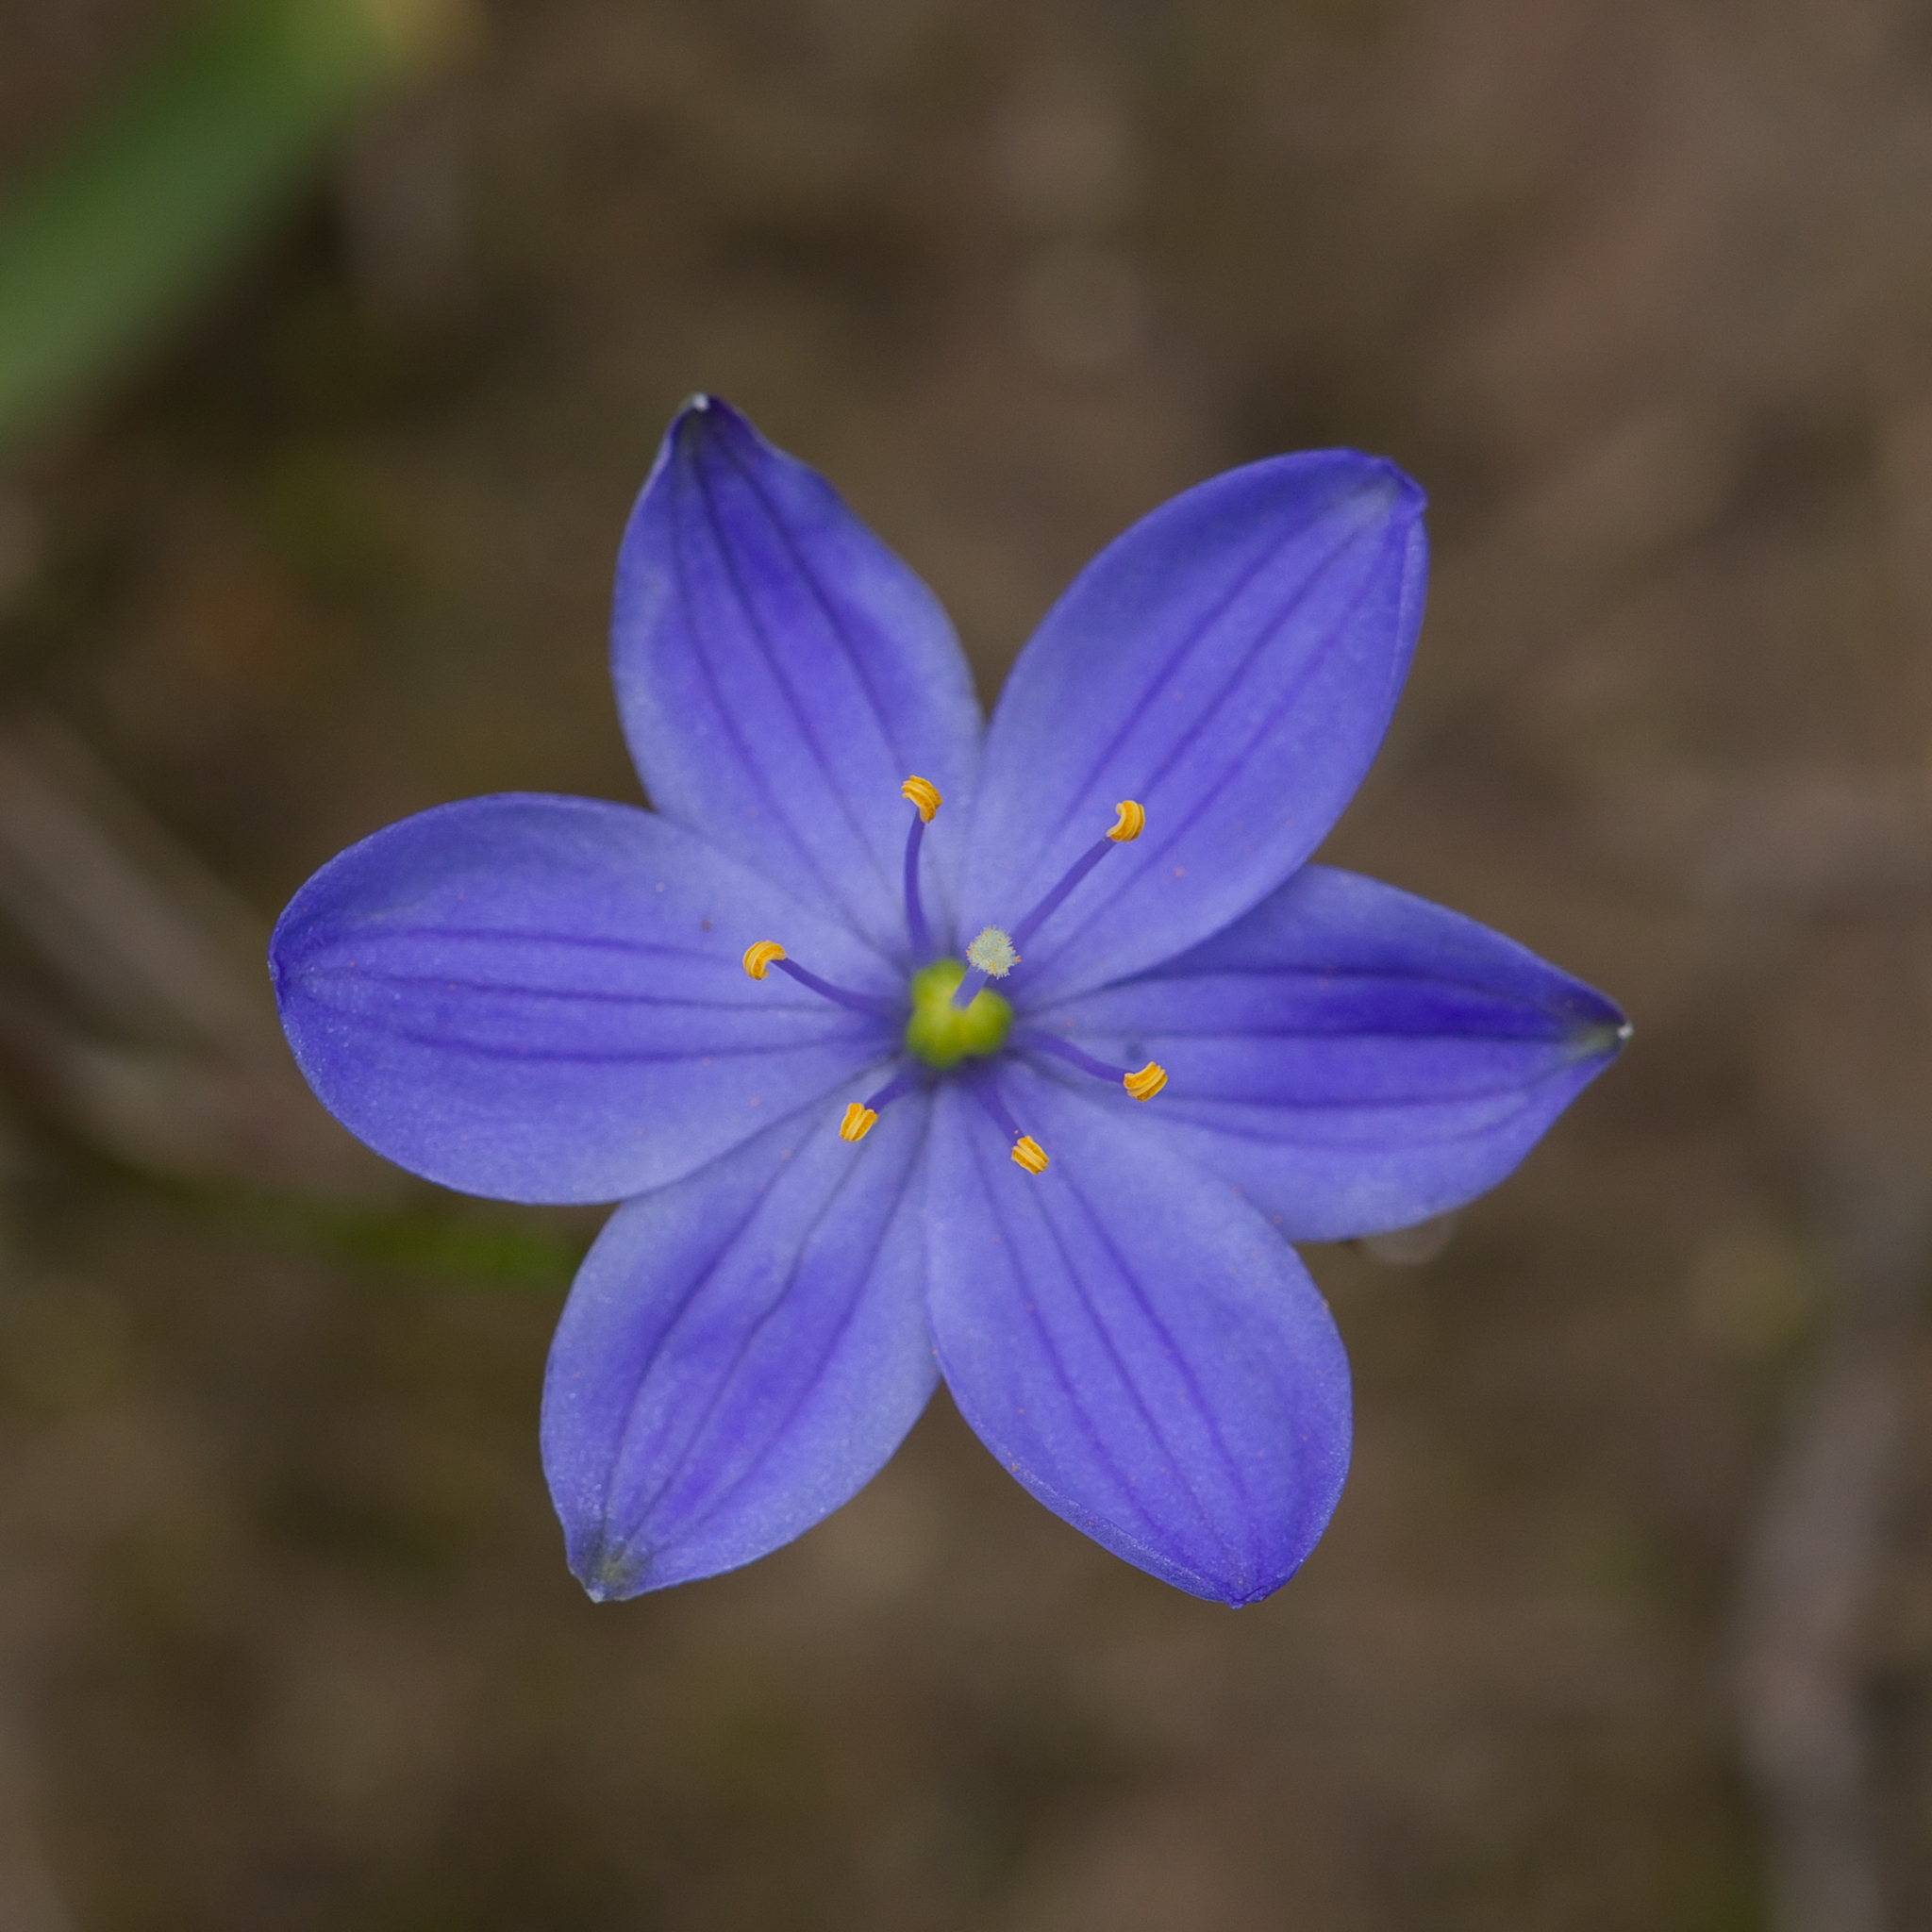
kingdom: Plantae
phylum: Tracheophyta
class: Liliopsida
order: Asparagales
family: Asphodelaceae
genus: Chamaescilla
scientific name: Chamaescilla corymbosa
